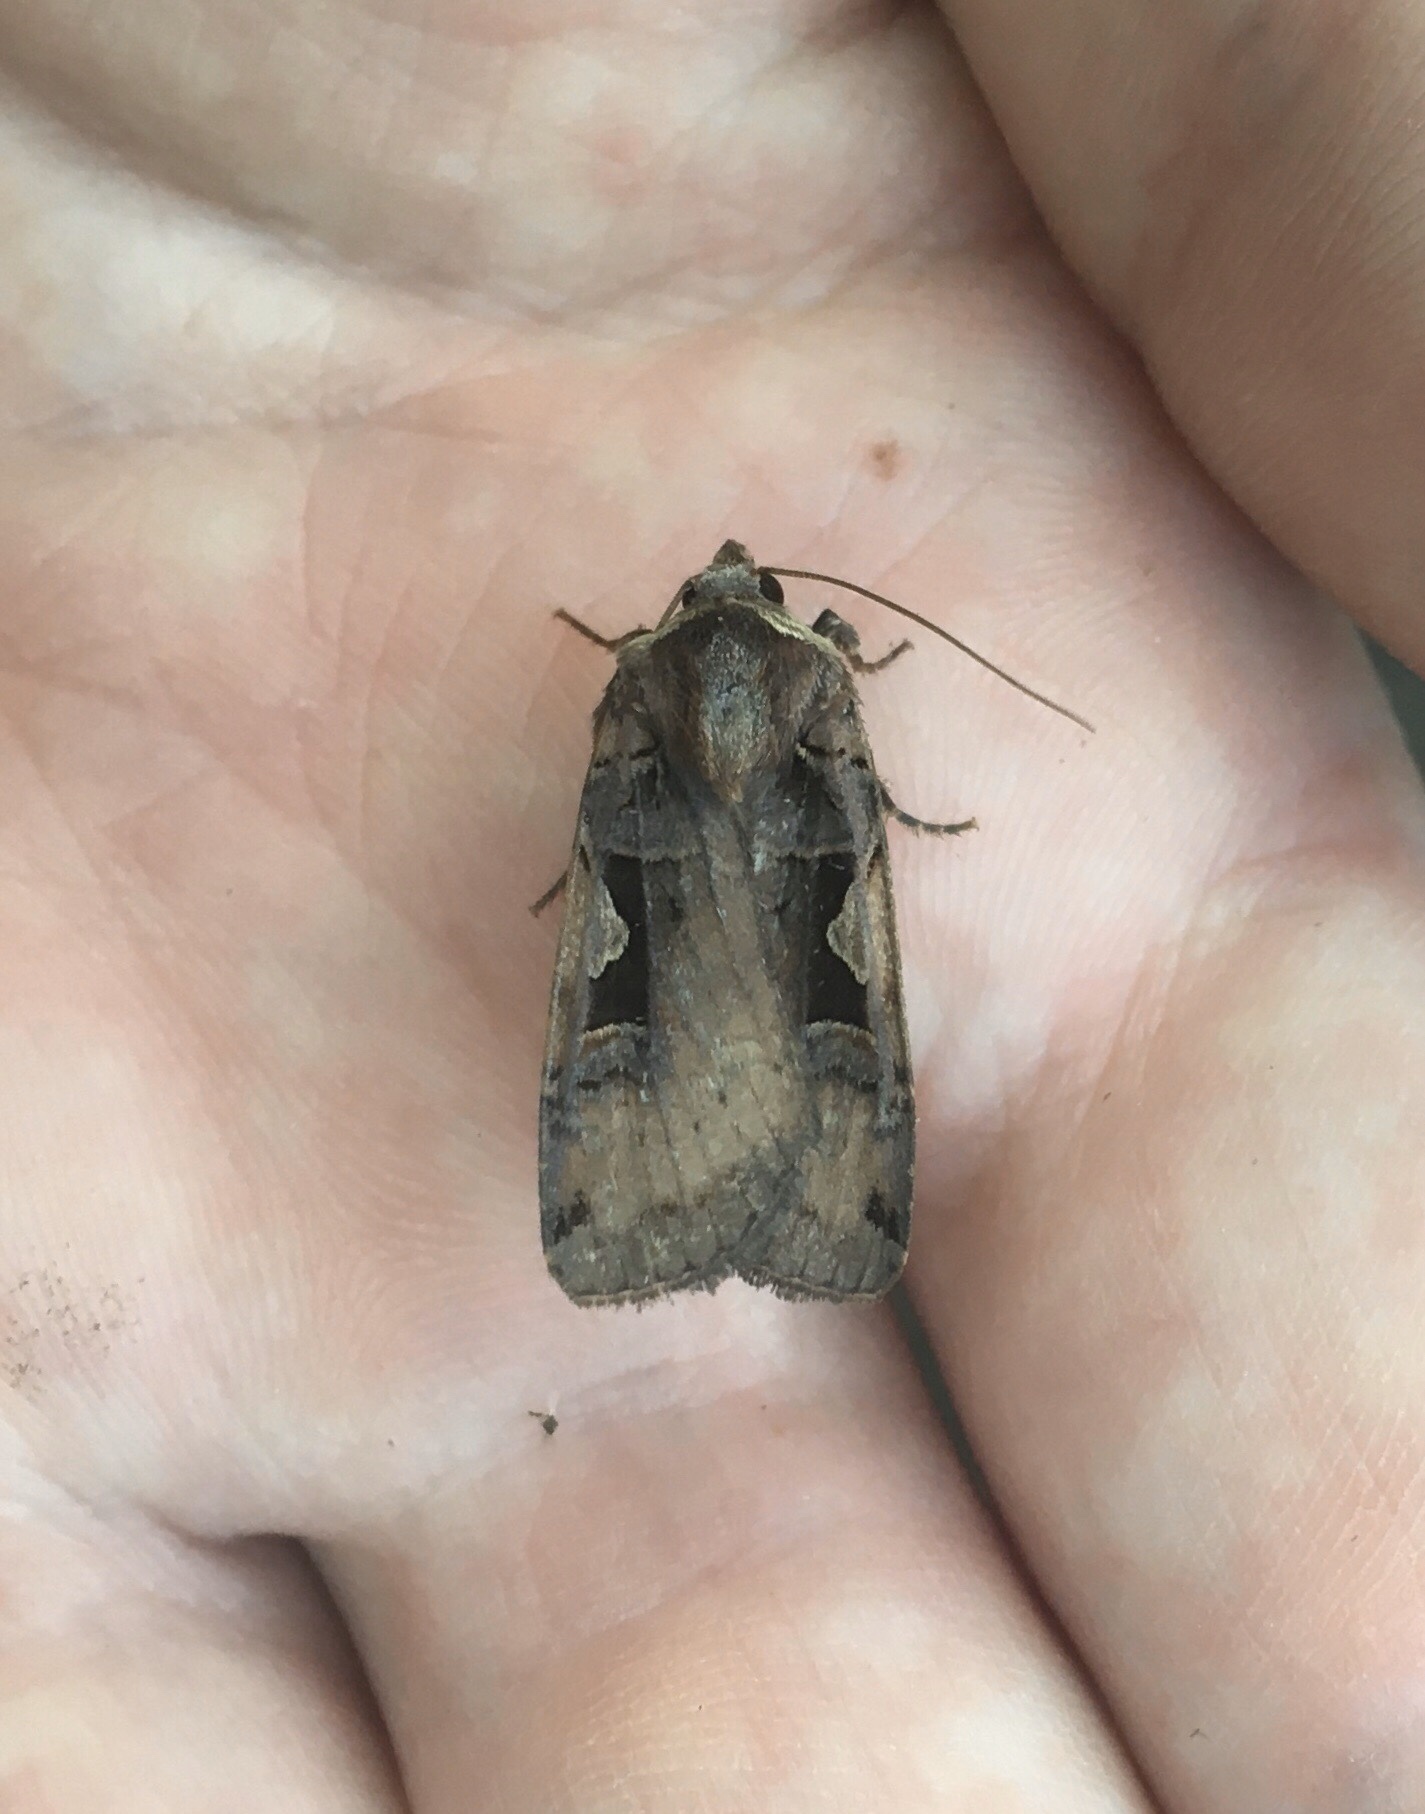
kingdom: Animalia
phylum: Arthropoda
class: Insecta
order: Lepidoptera
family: Noctuidae
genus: Xestia
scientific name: Xestia
